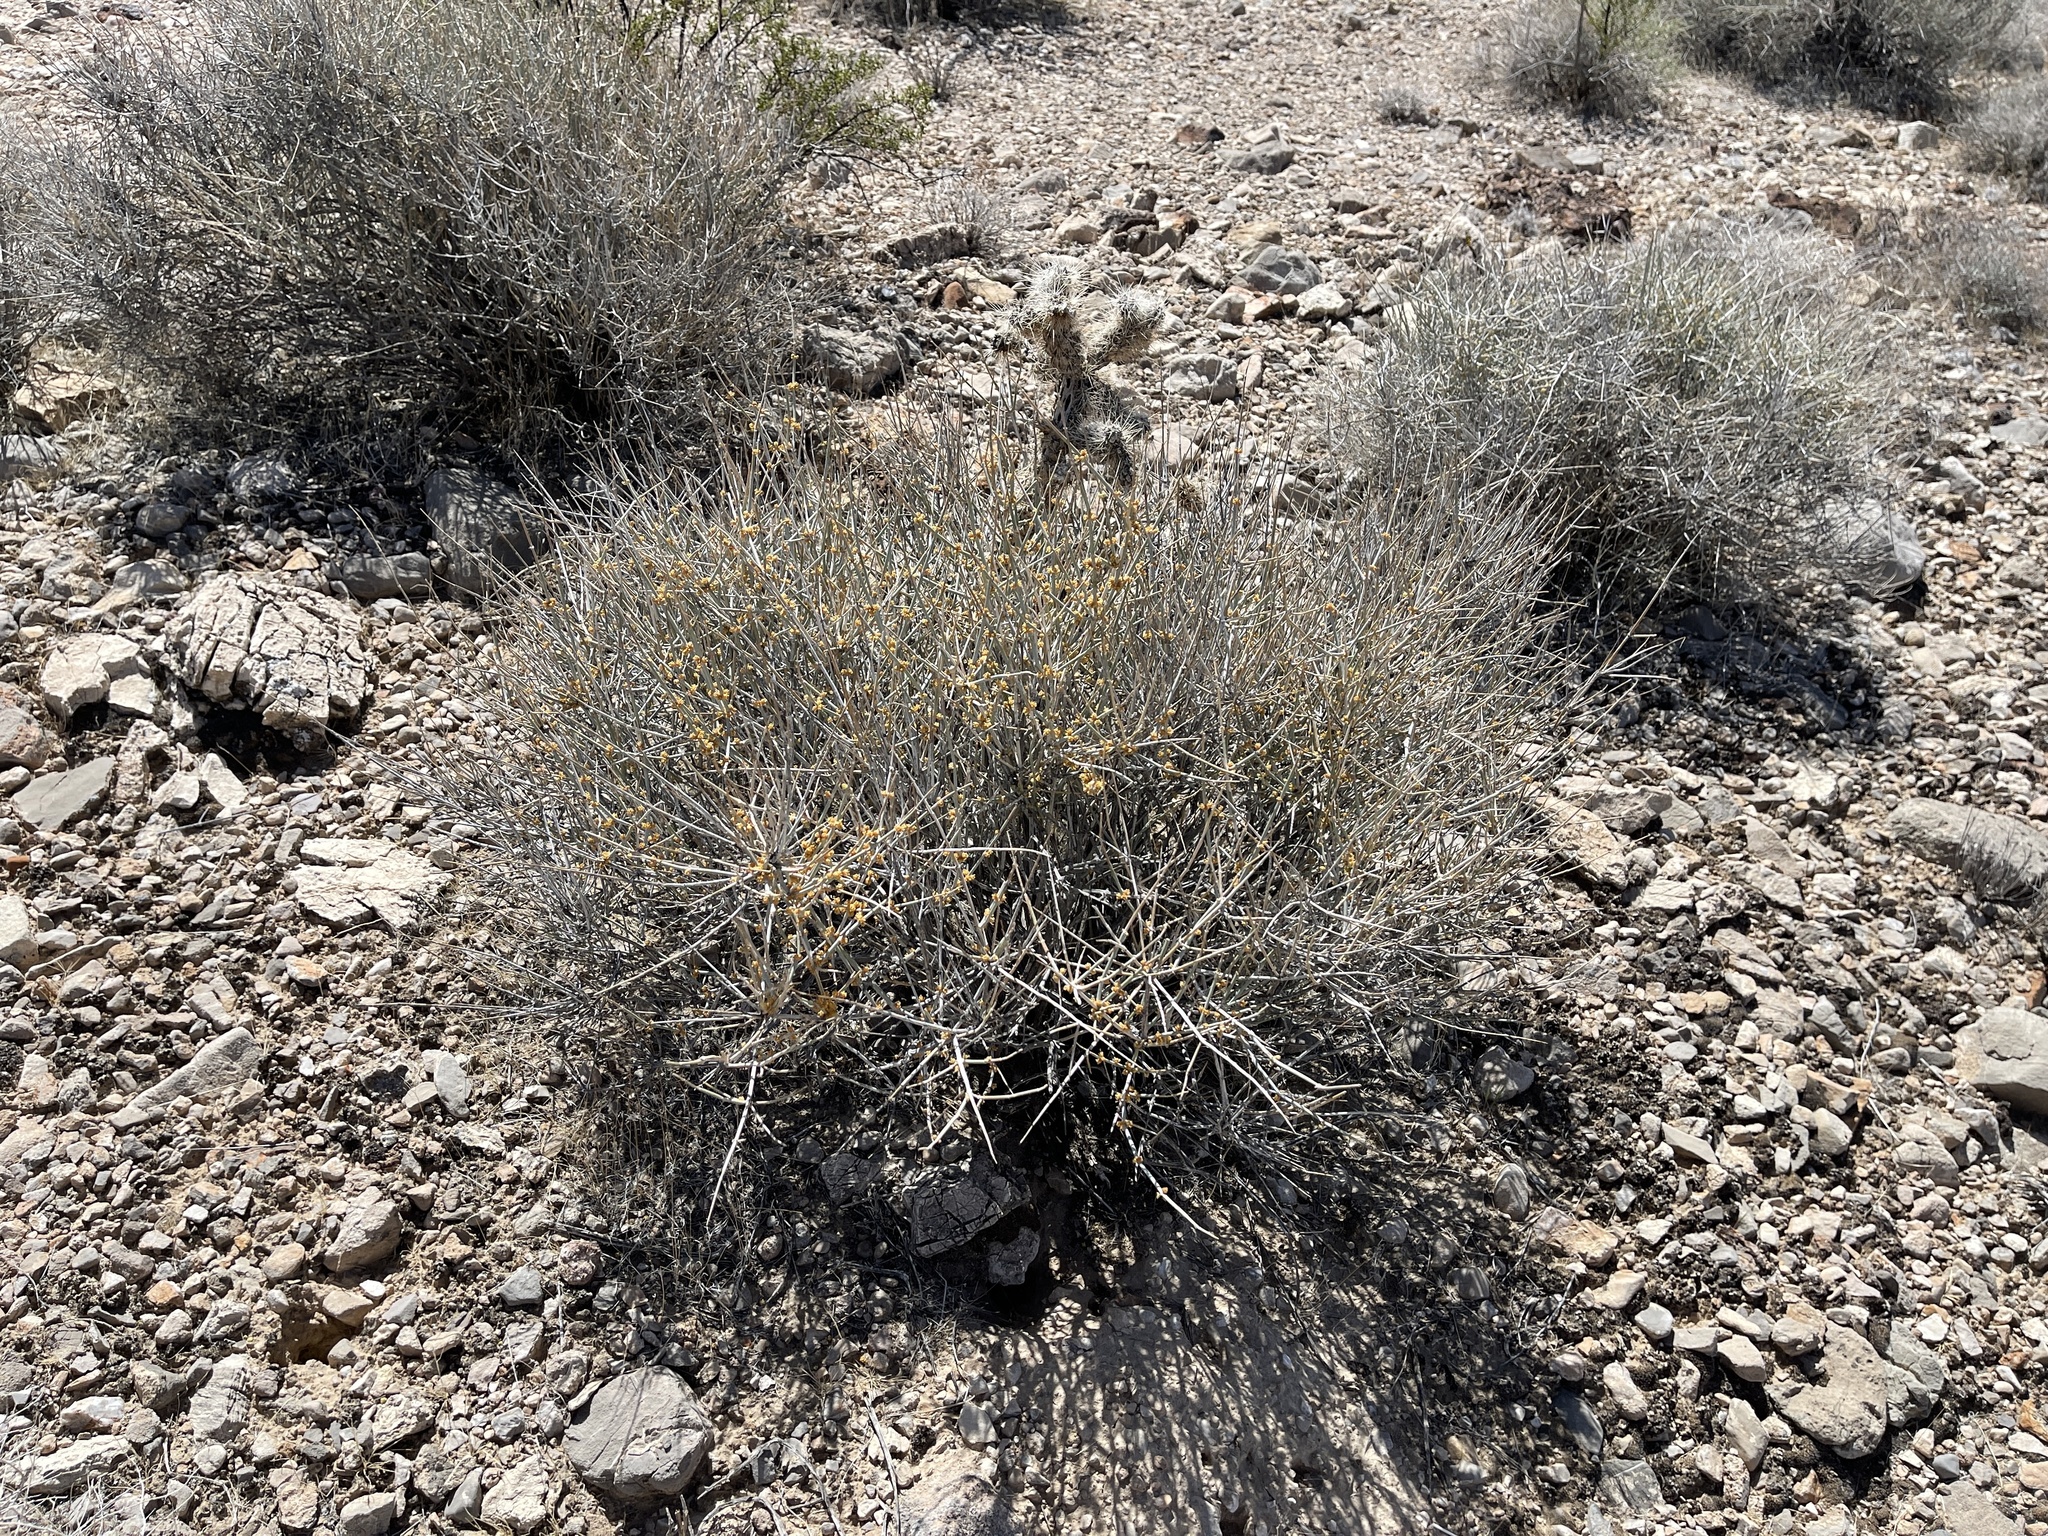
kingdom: Plantae
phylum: Tracheophyta
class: Gnetopsida
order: Ephedrales
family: Ephedraceae
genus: Ephedra
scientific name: Ephedra nevadensis
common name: Gray ephedra
